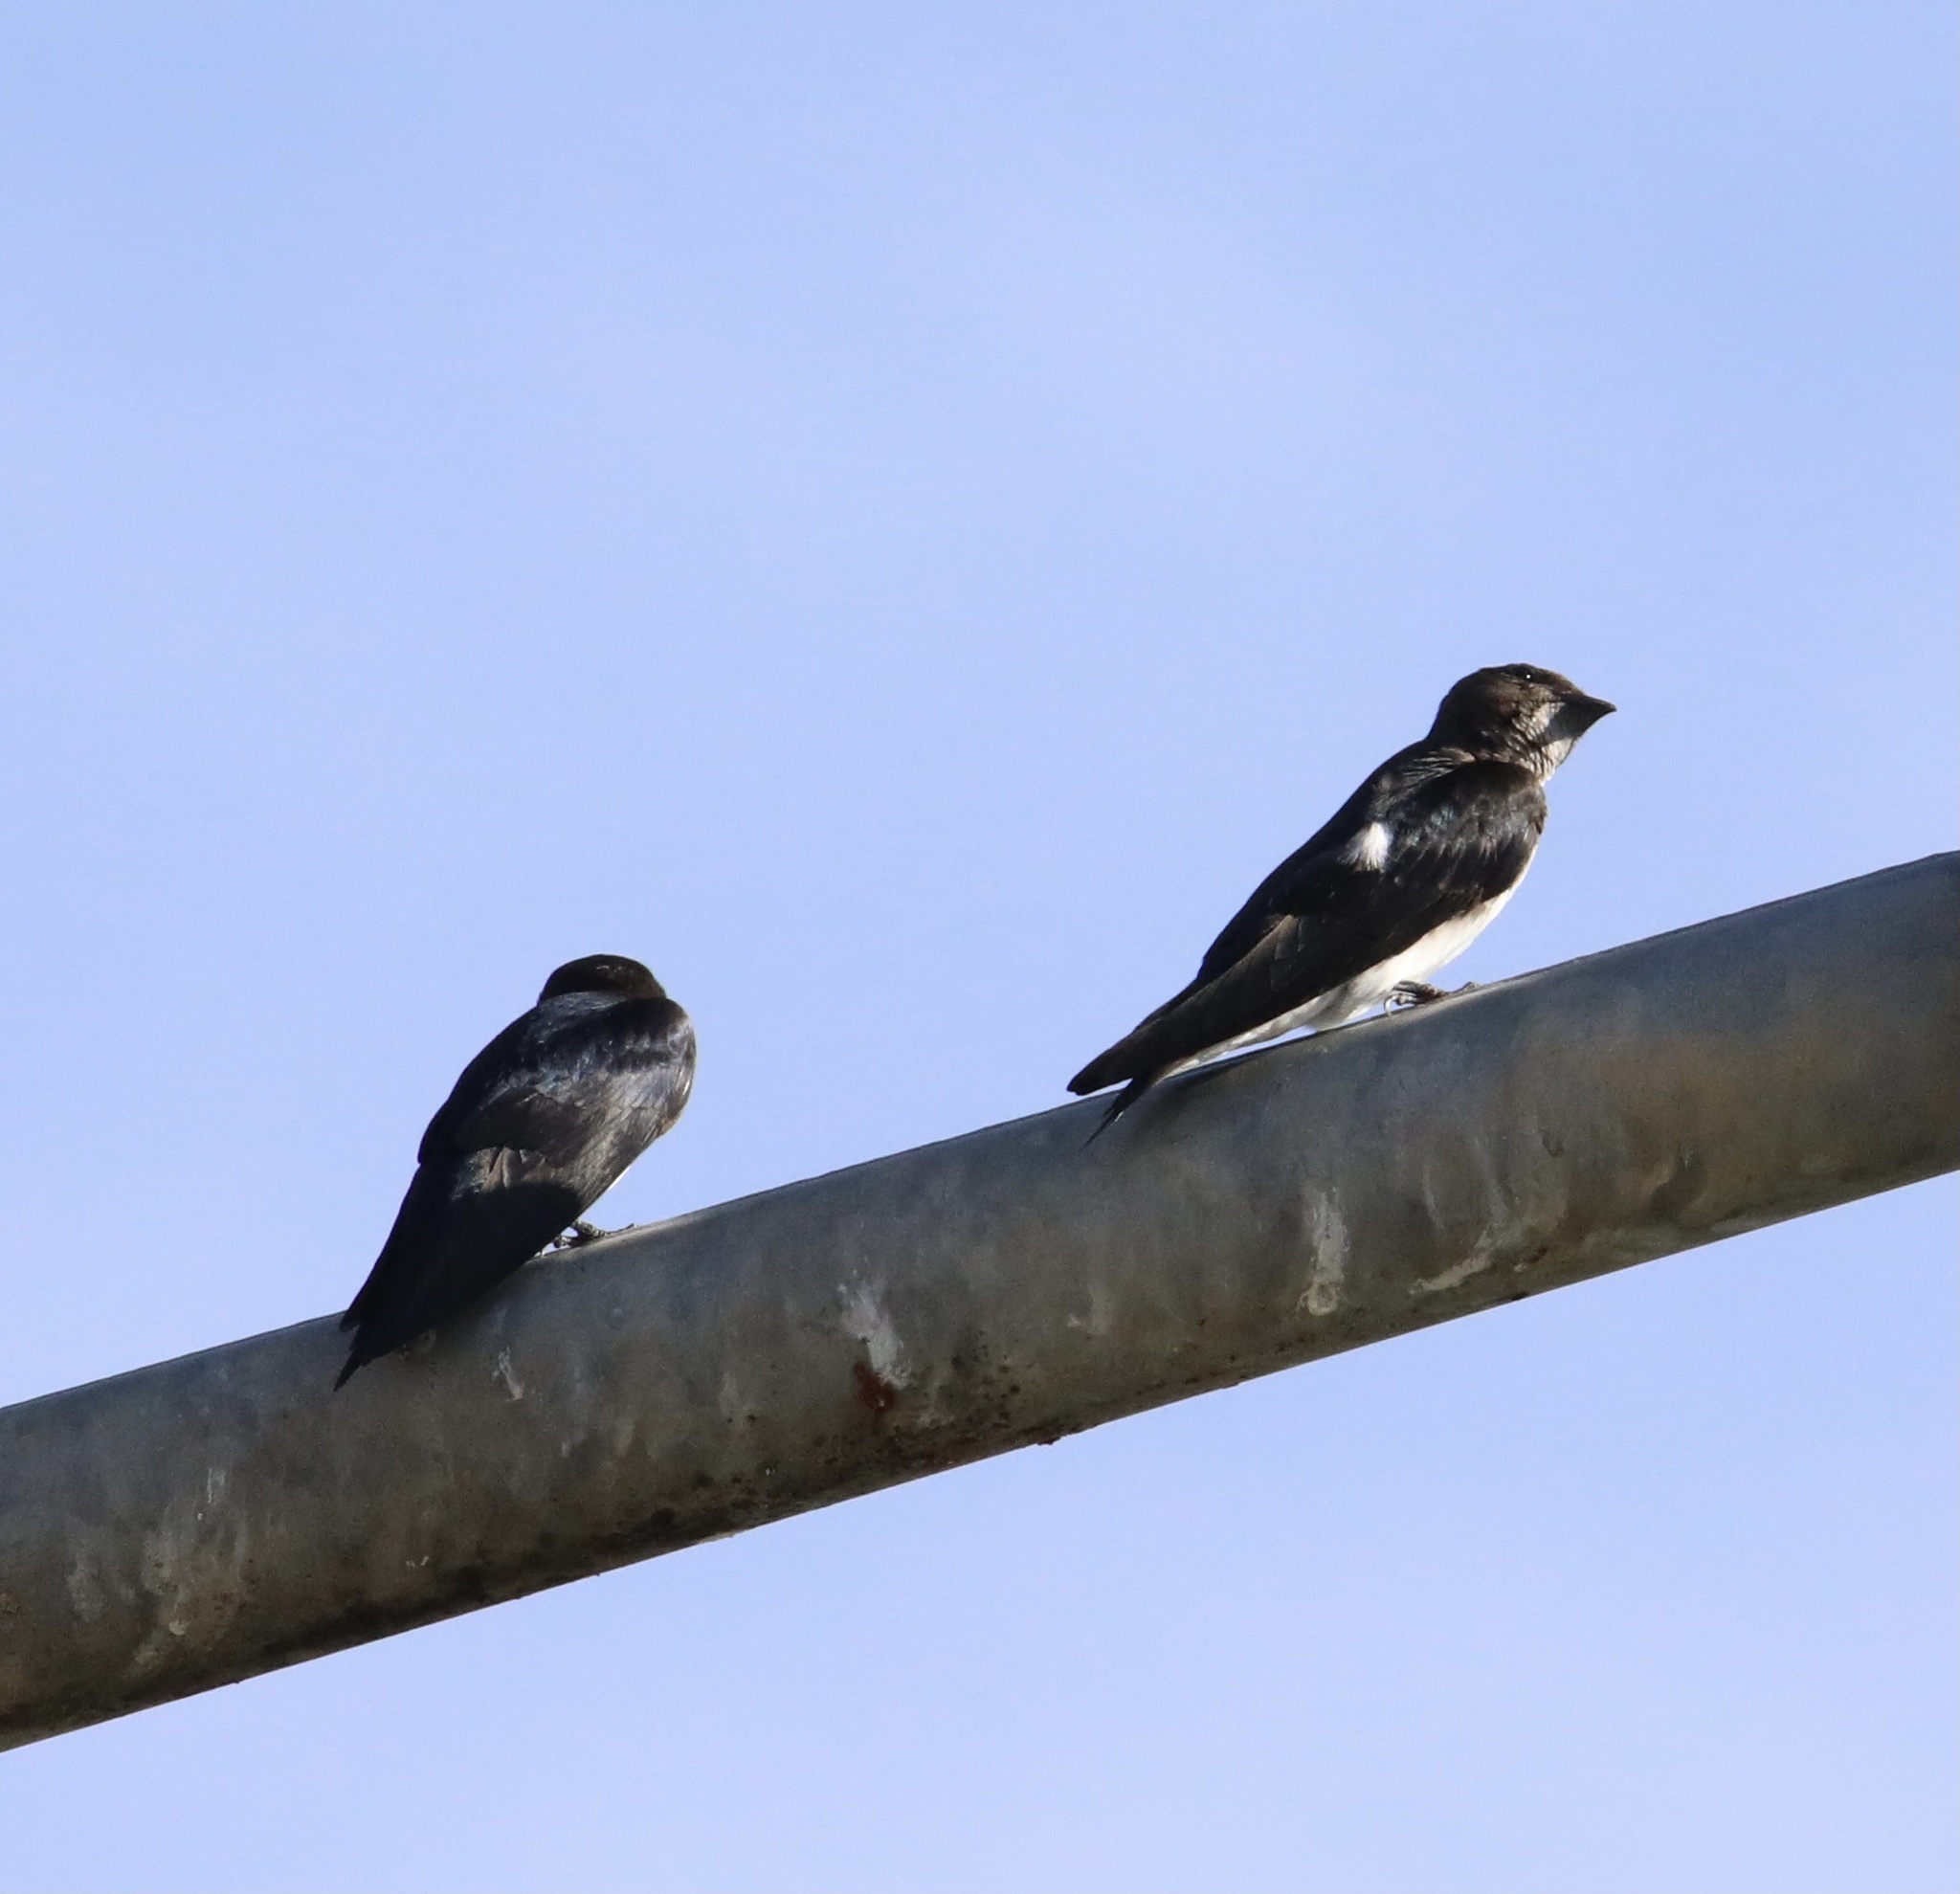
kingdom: Animalia
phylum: Chordata
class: Aves
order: Passeriformes
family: Hirundinidae
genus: Progne
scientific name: Progne chalybea
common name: Grey-breasted martin
